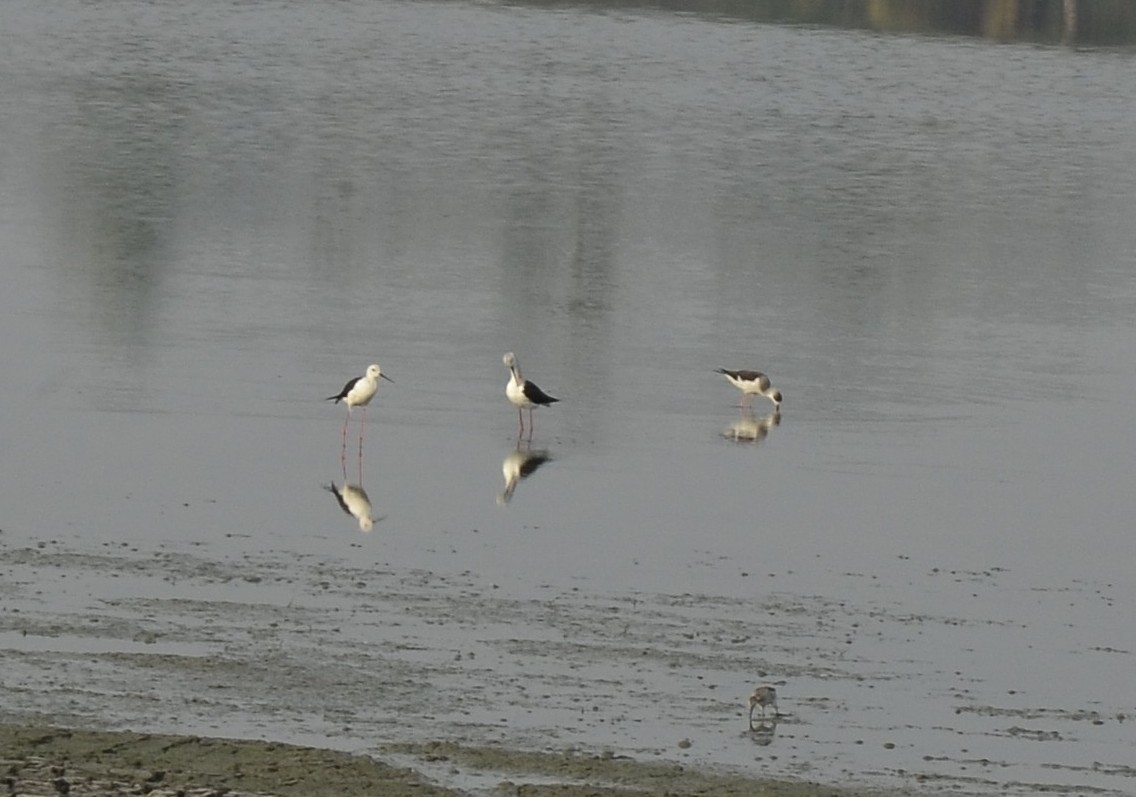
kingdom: Animalia
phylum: Chordata
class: Aves
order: Charadriiformes
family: Recurvirostridae
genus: Himantopus
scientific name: Himantopus himantopus
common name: Black-winged stilt
